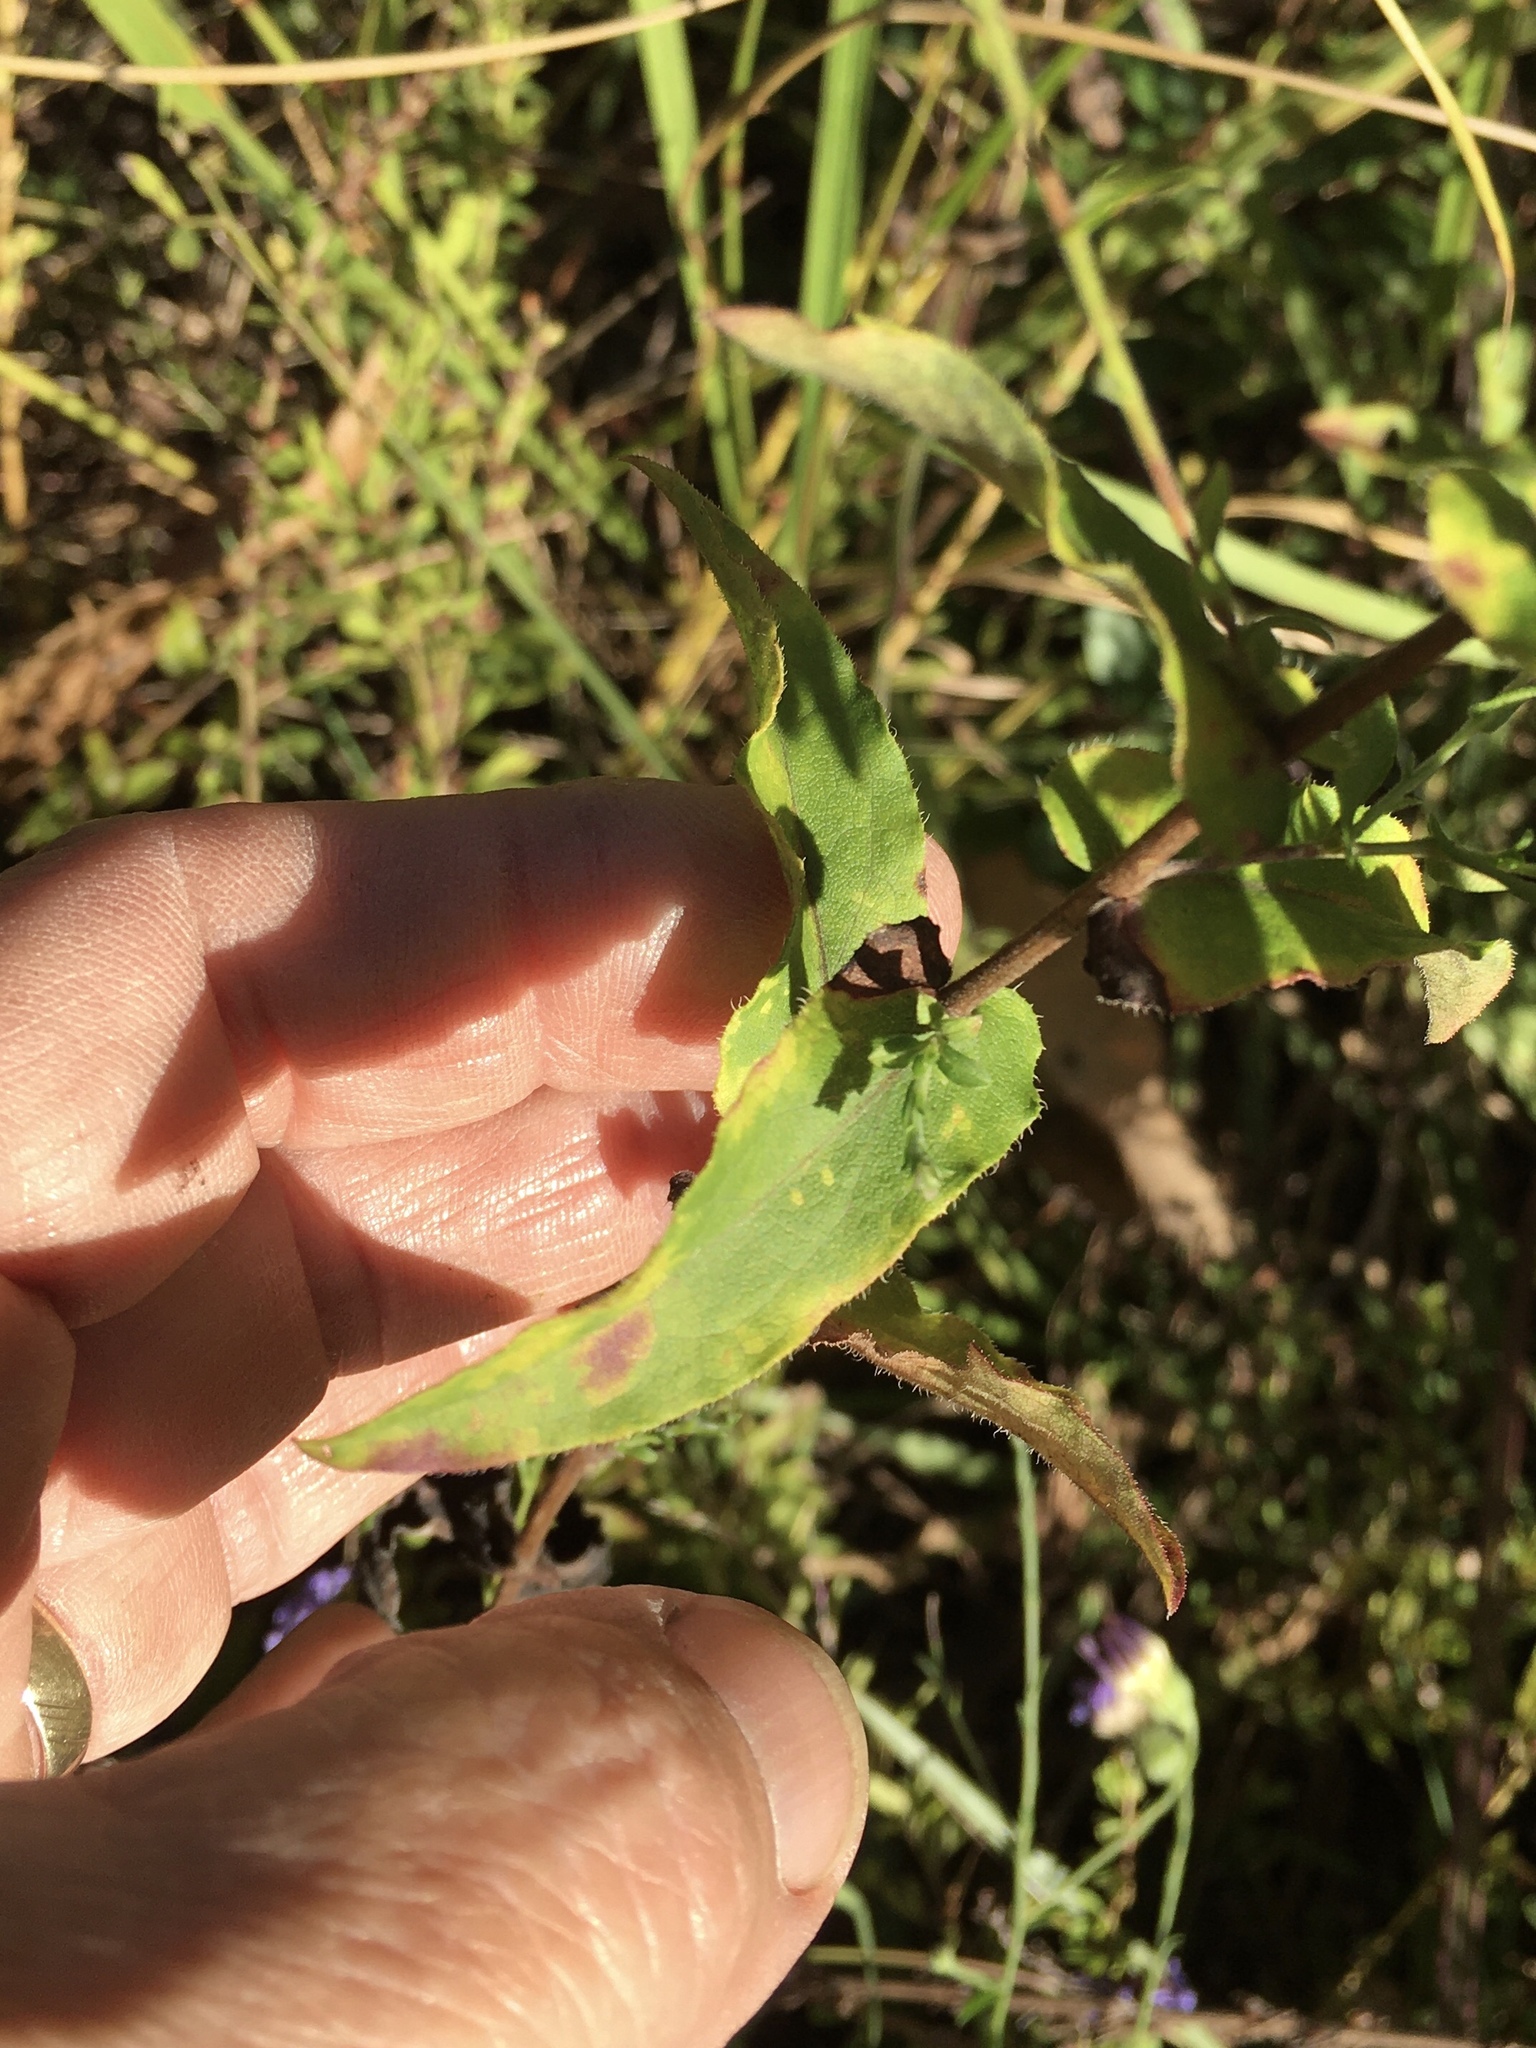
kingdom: Plantae
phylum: Tracheophyta
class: Magnoliopsida
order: Asterales
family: Asteraceae
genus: Symphyotrichum
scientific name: Symphyotrichum patens
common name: Late purple aster
